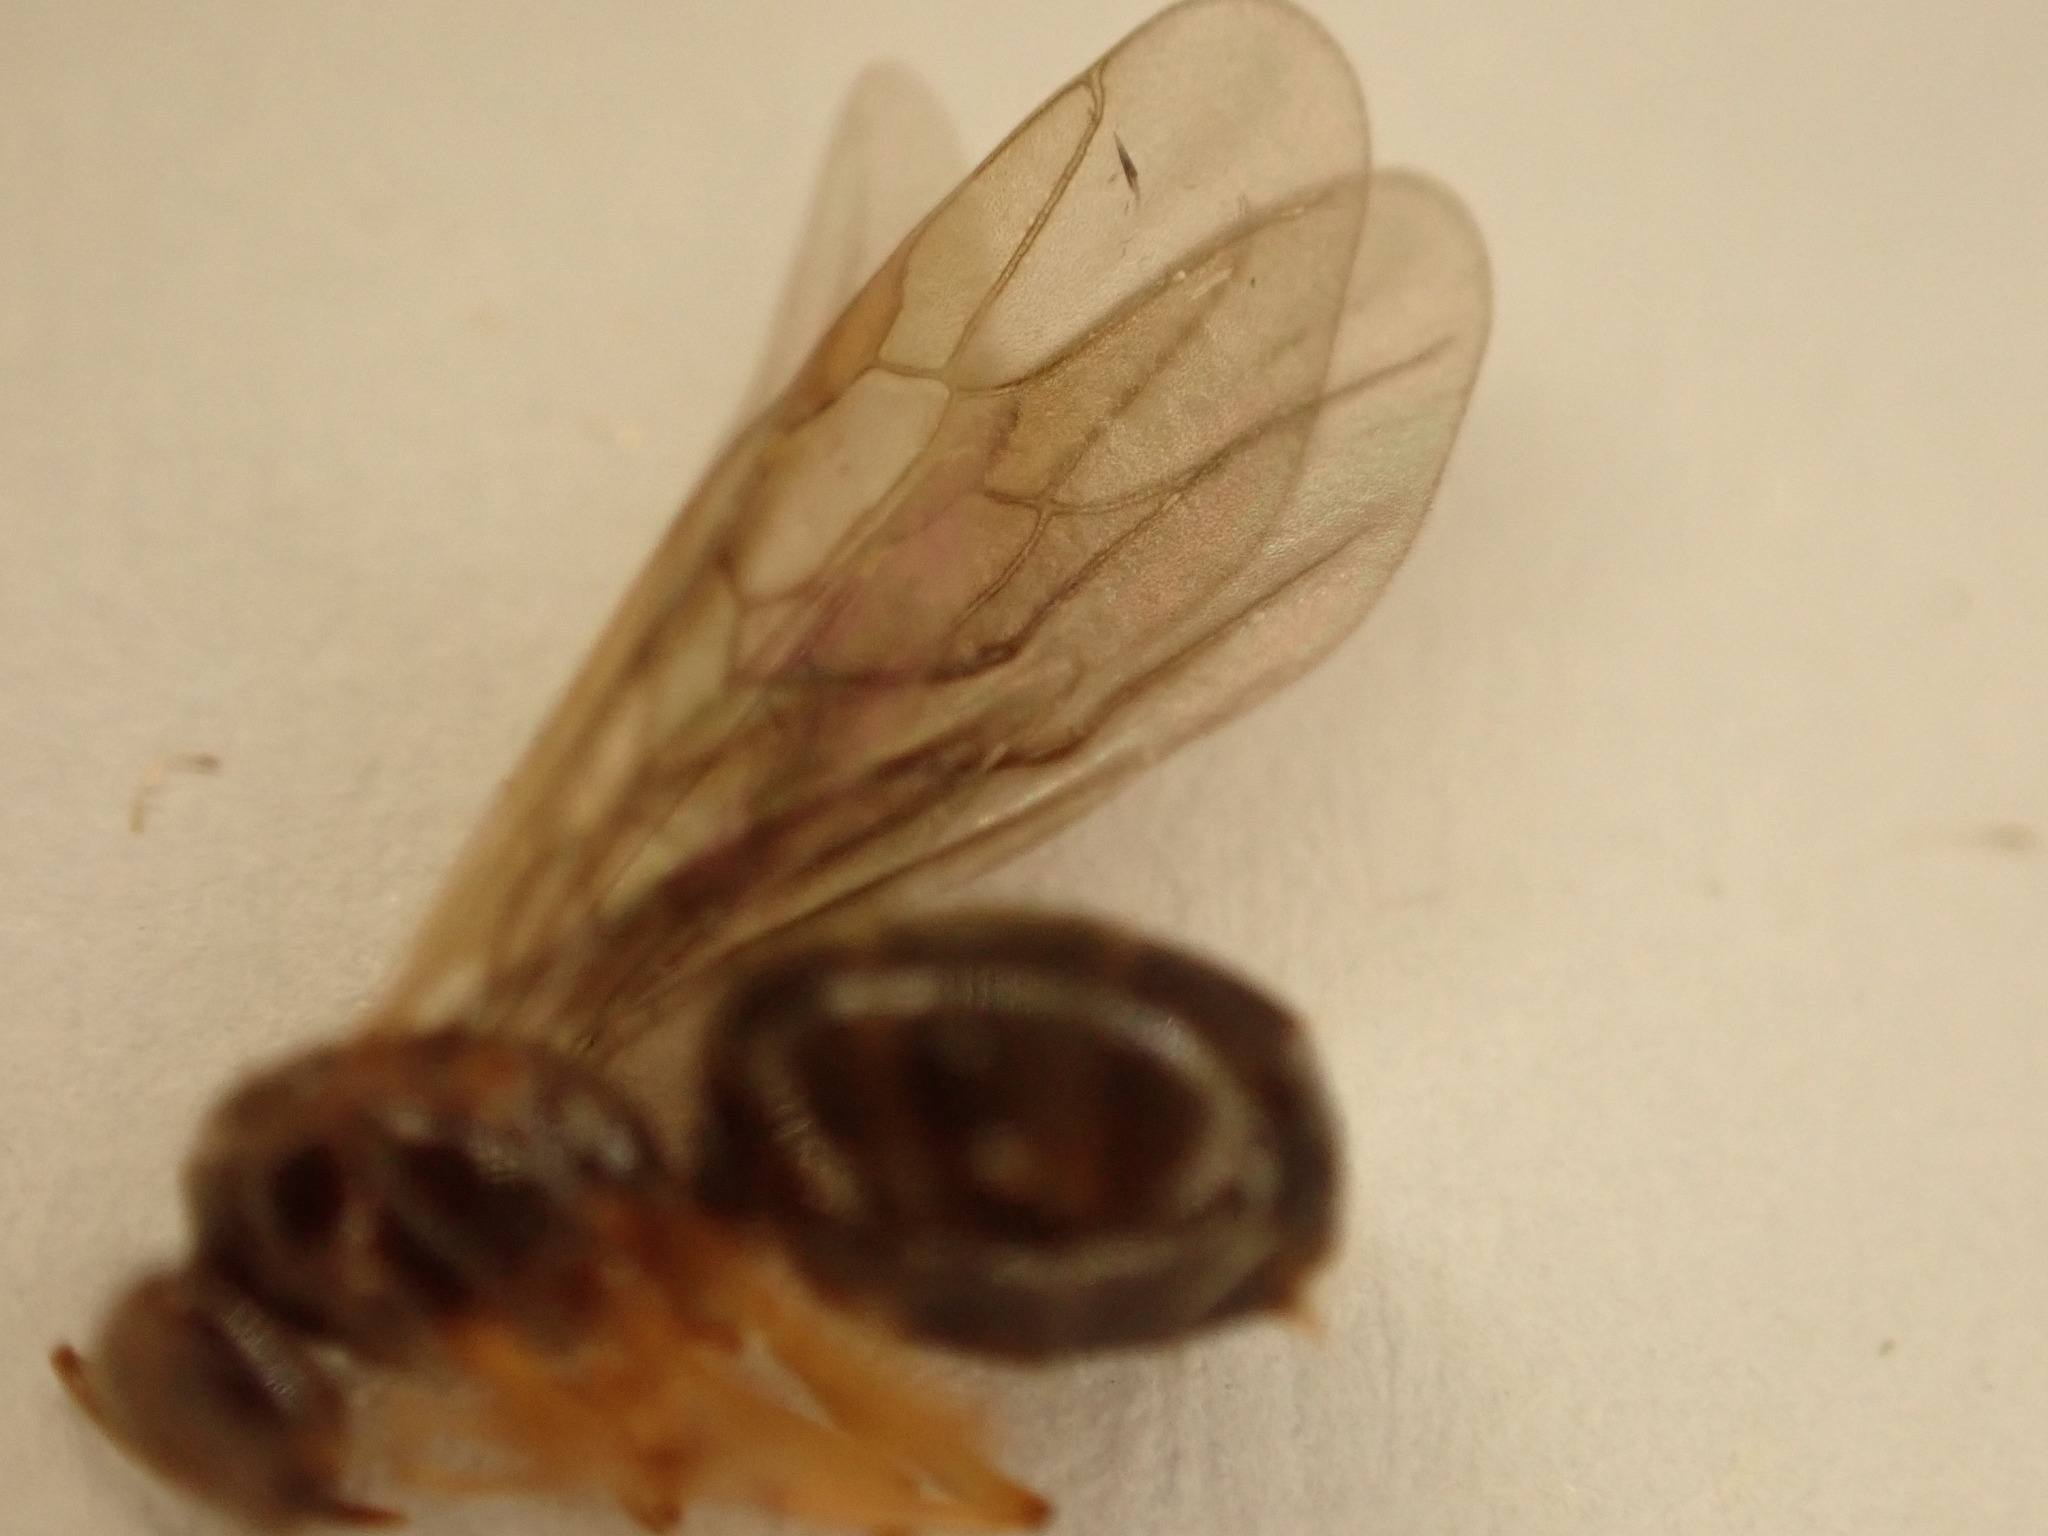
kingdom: Animalia
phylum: Arthropoda
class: Insecta
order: Hymenoptera
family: Formicidae
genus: Prolasius
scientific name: Prolasius advenus
